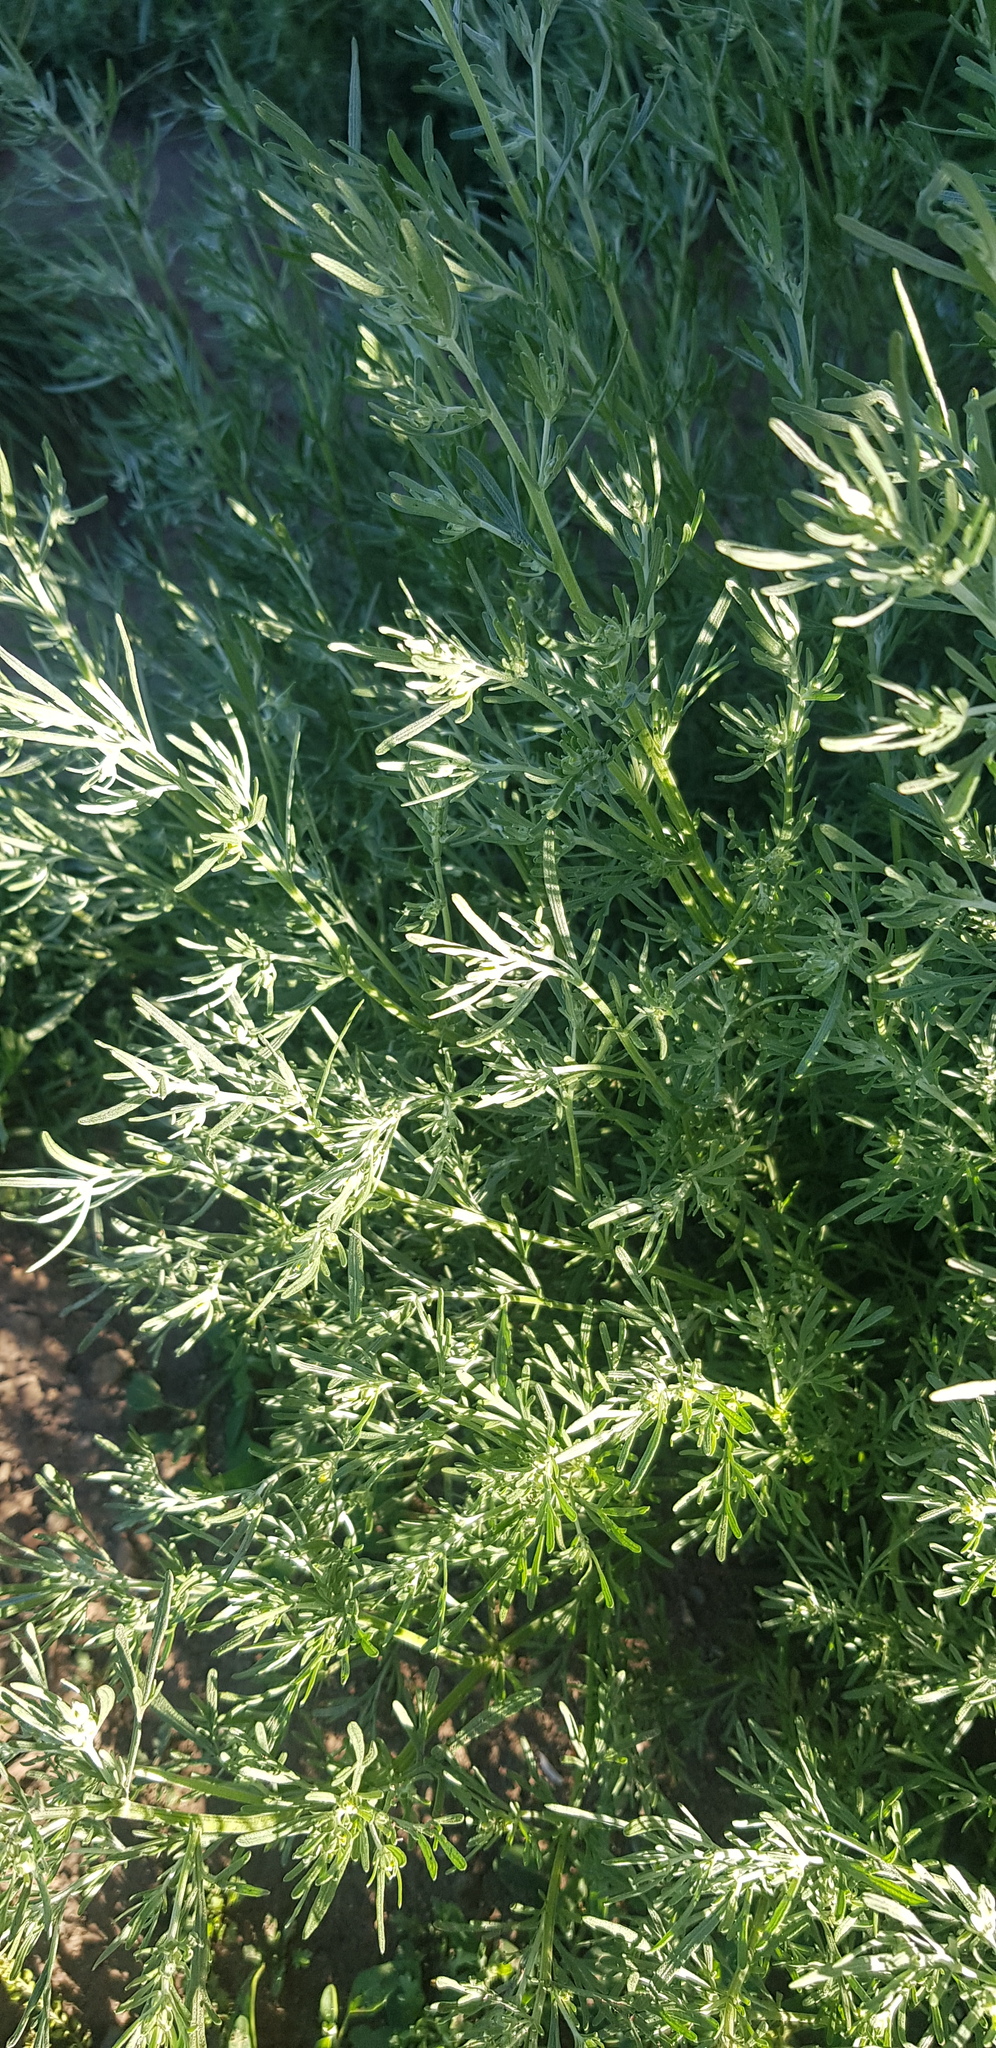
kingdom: Plantae
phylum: Tracheophyta
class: Magnoliopsida
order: Asterales
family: Asteraceae
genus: Artemisia
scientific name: Artemisia sieversiana
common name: Sieversian wormwood
